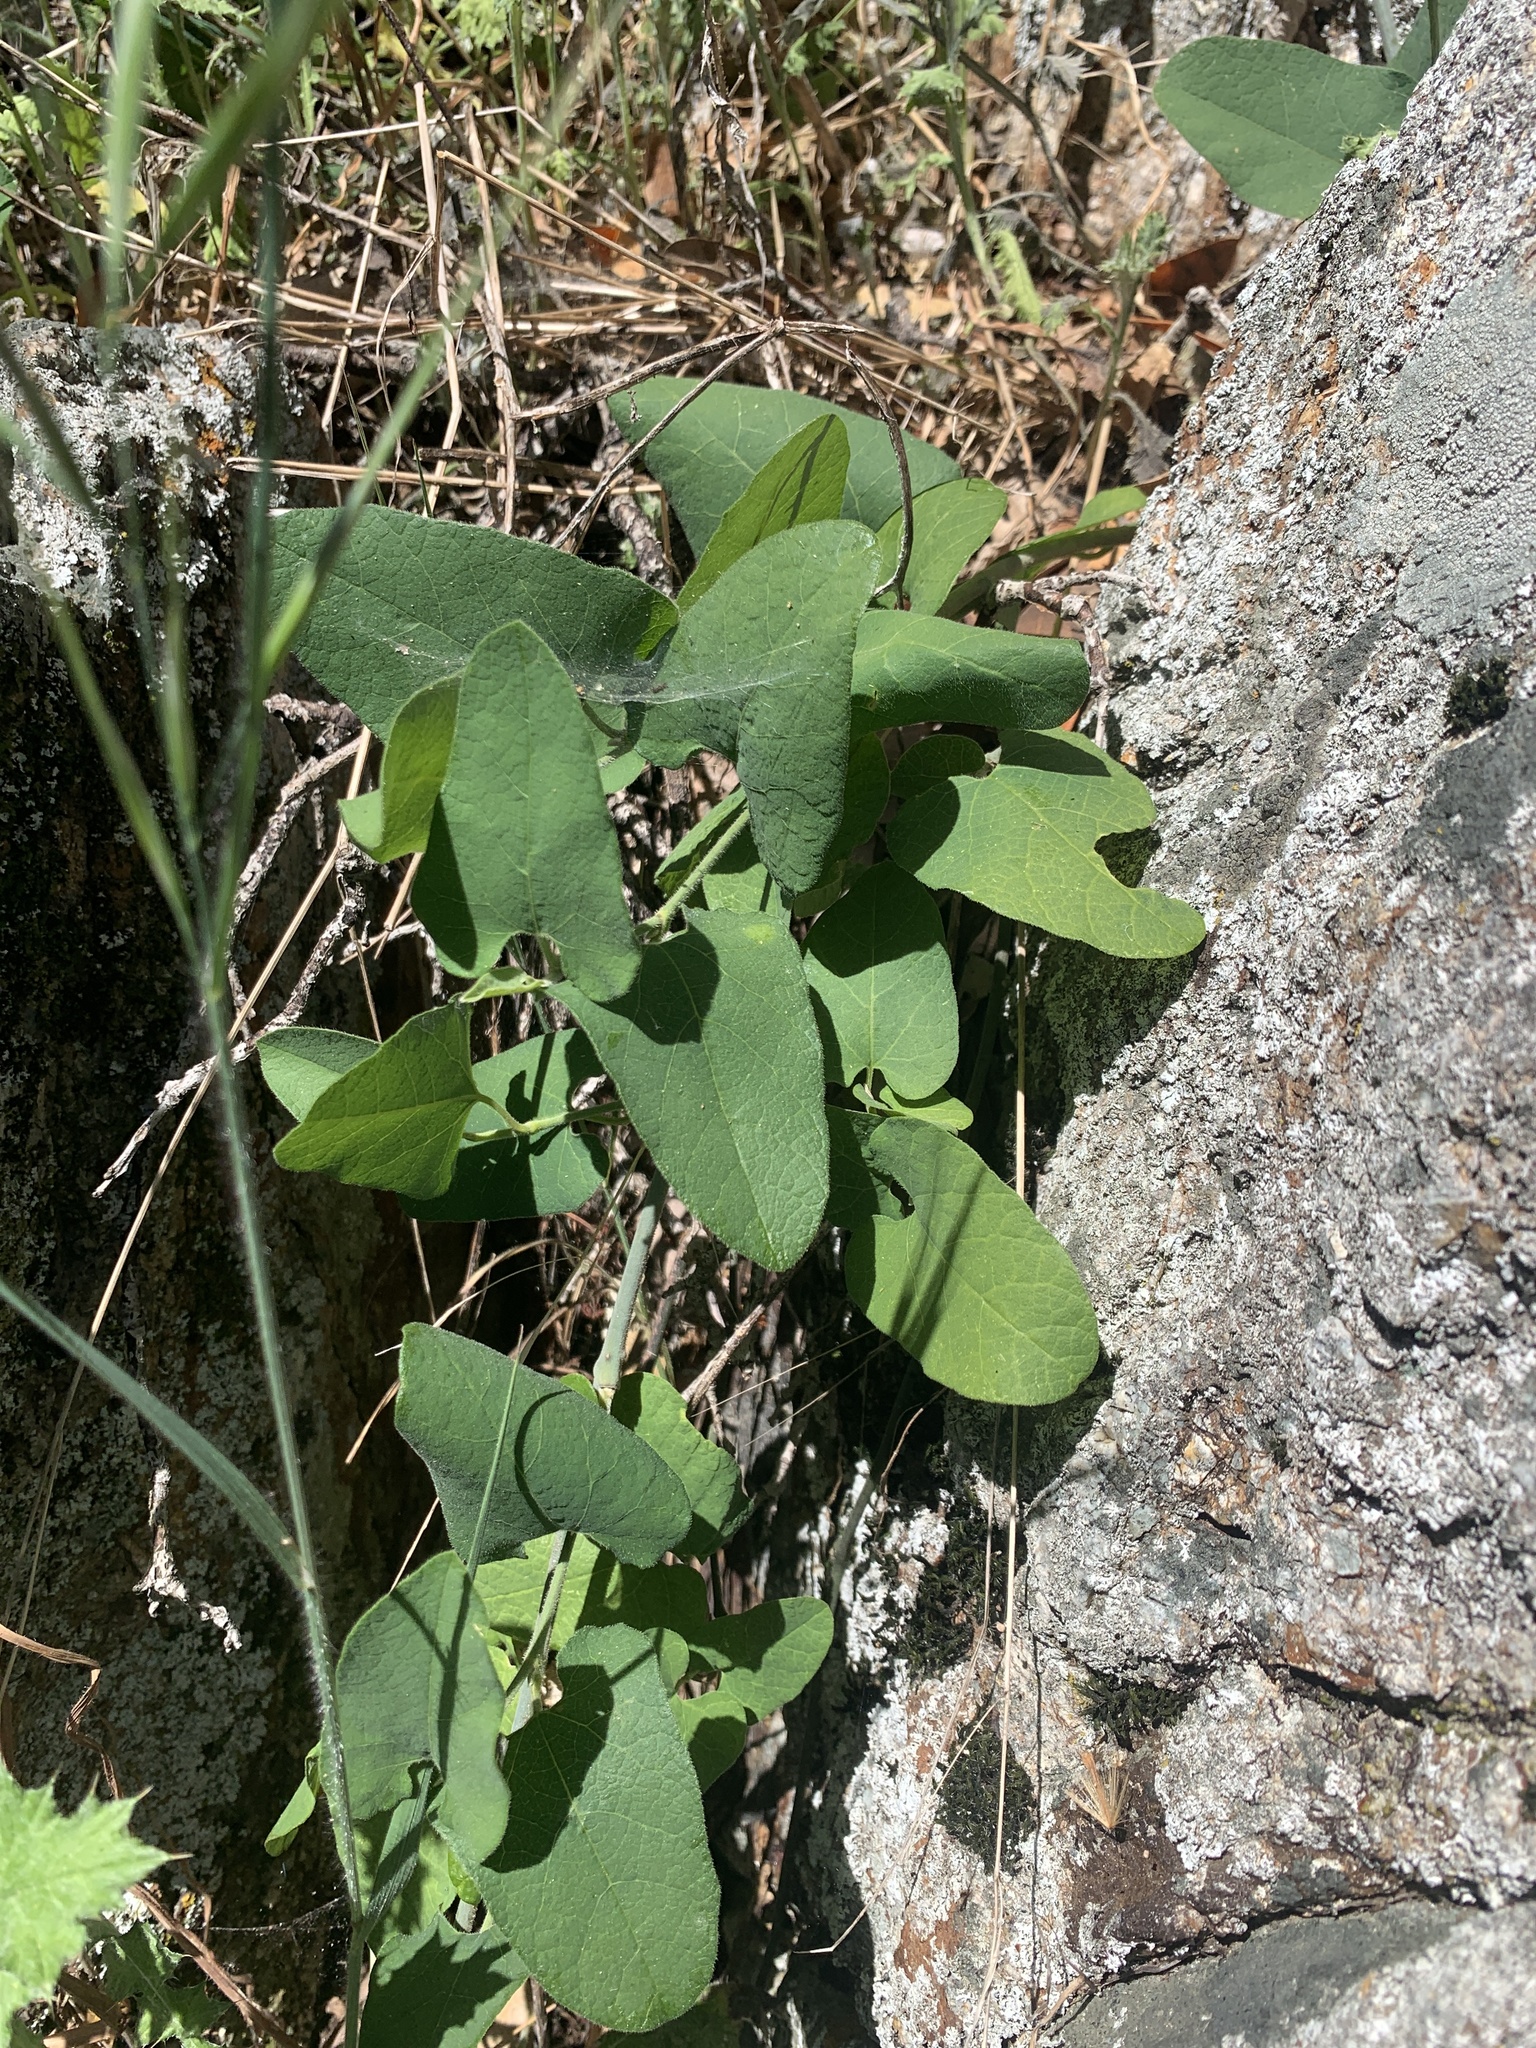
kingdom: Plantae
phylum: Tracheophyta
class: Magnoliopsida
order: Piperales
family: Aristolochiaceae
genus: Isotrema
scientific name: Isotrema californicum
